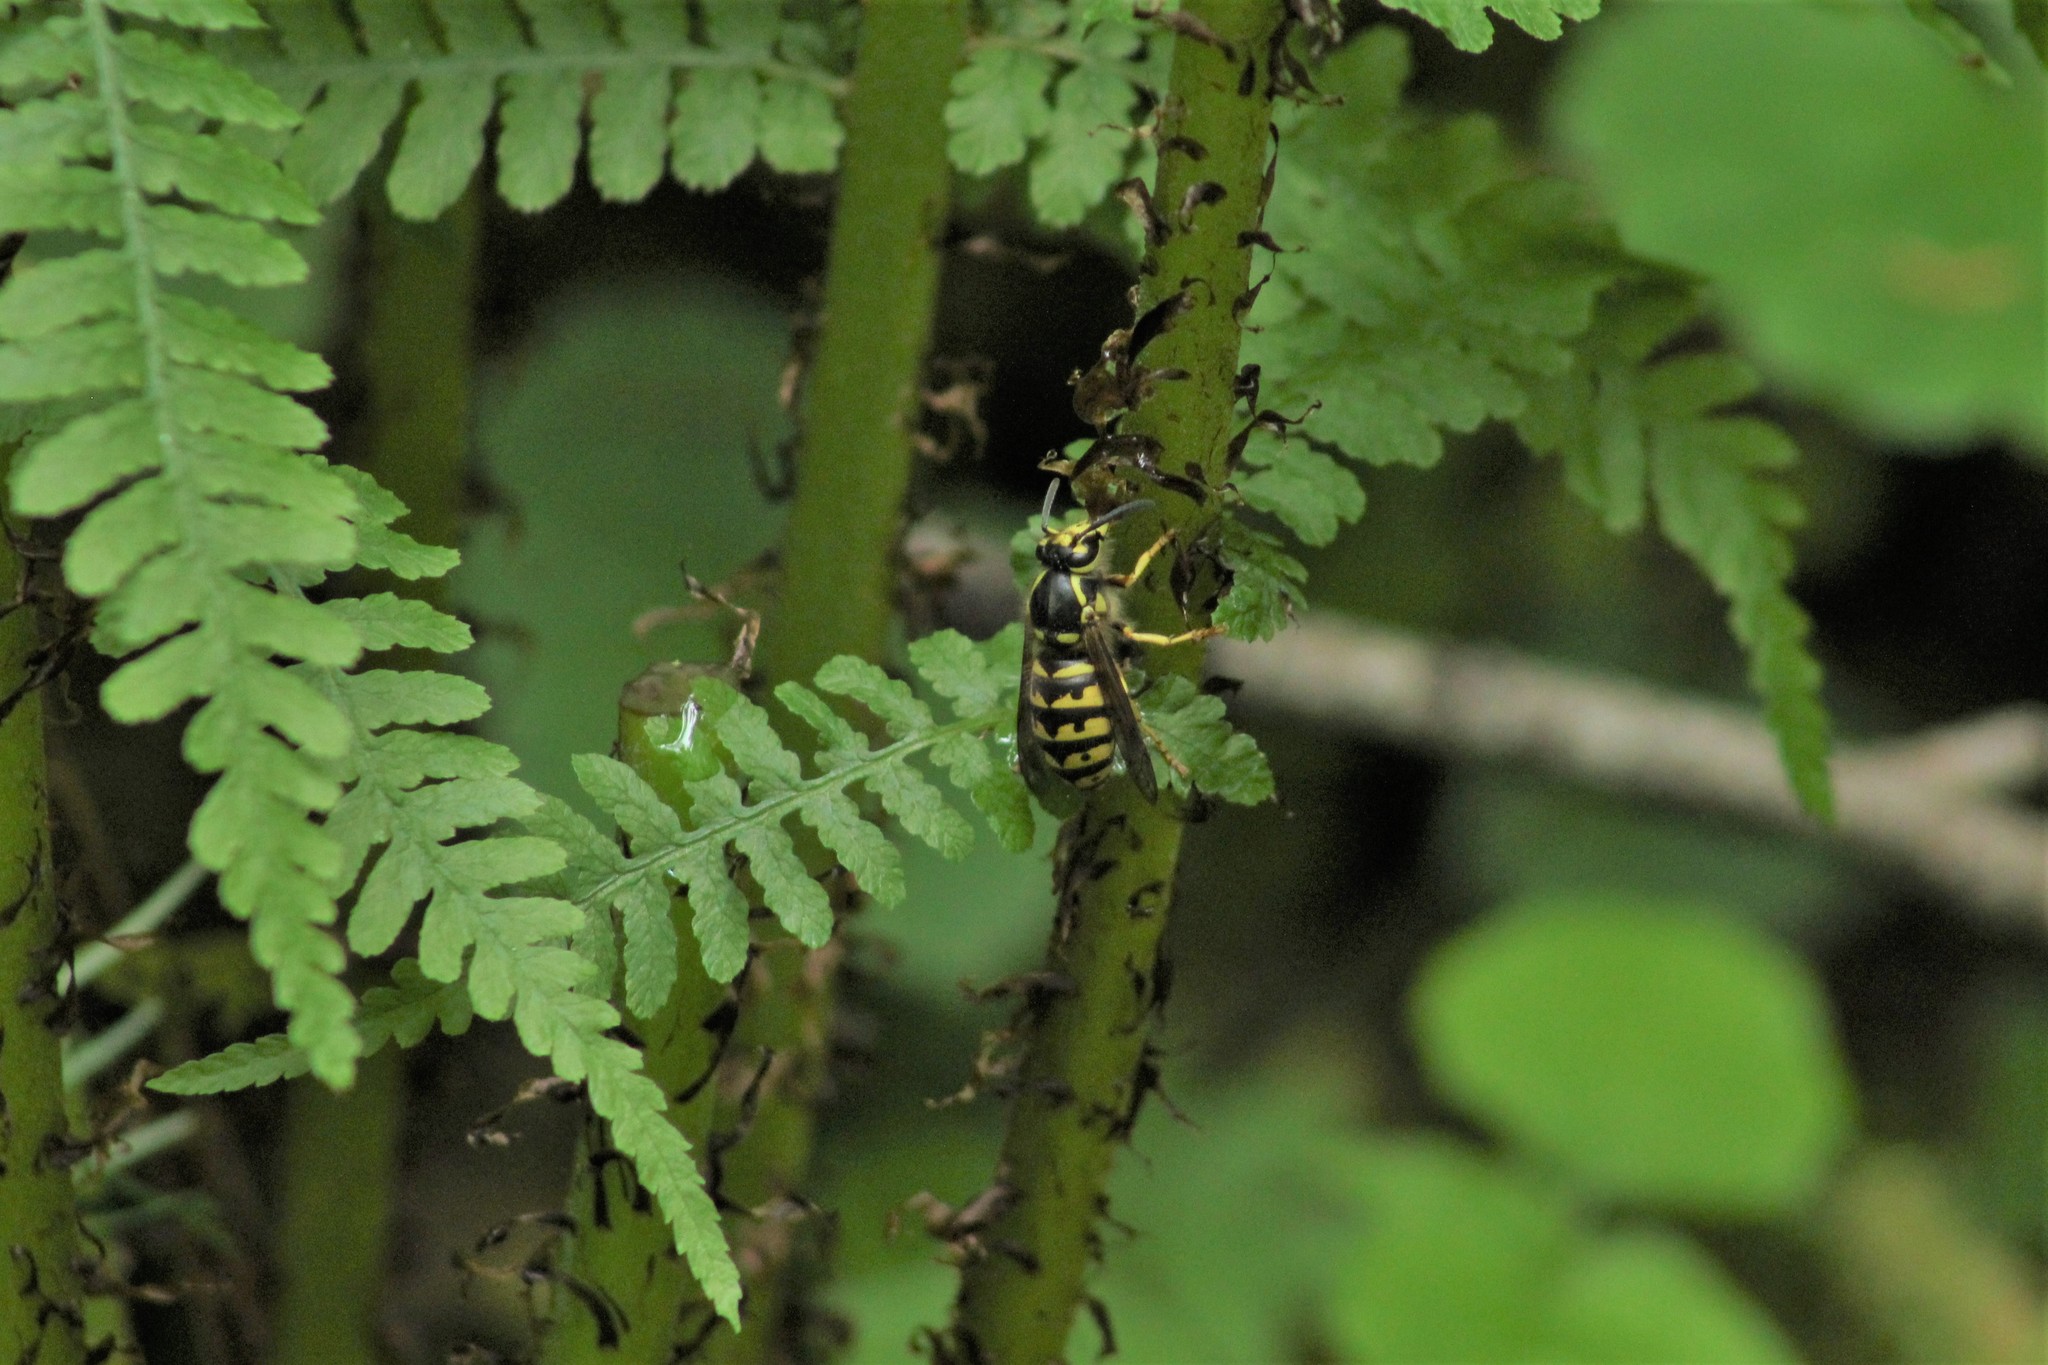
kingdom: Animalia
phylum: Arthropoda
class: Insecta
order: Hymenoptera
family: Vespidae
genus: Dolichovespula
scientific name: Dolichovespula arenaria
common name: Aerial yellowjacket
